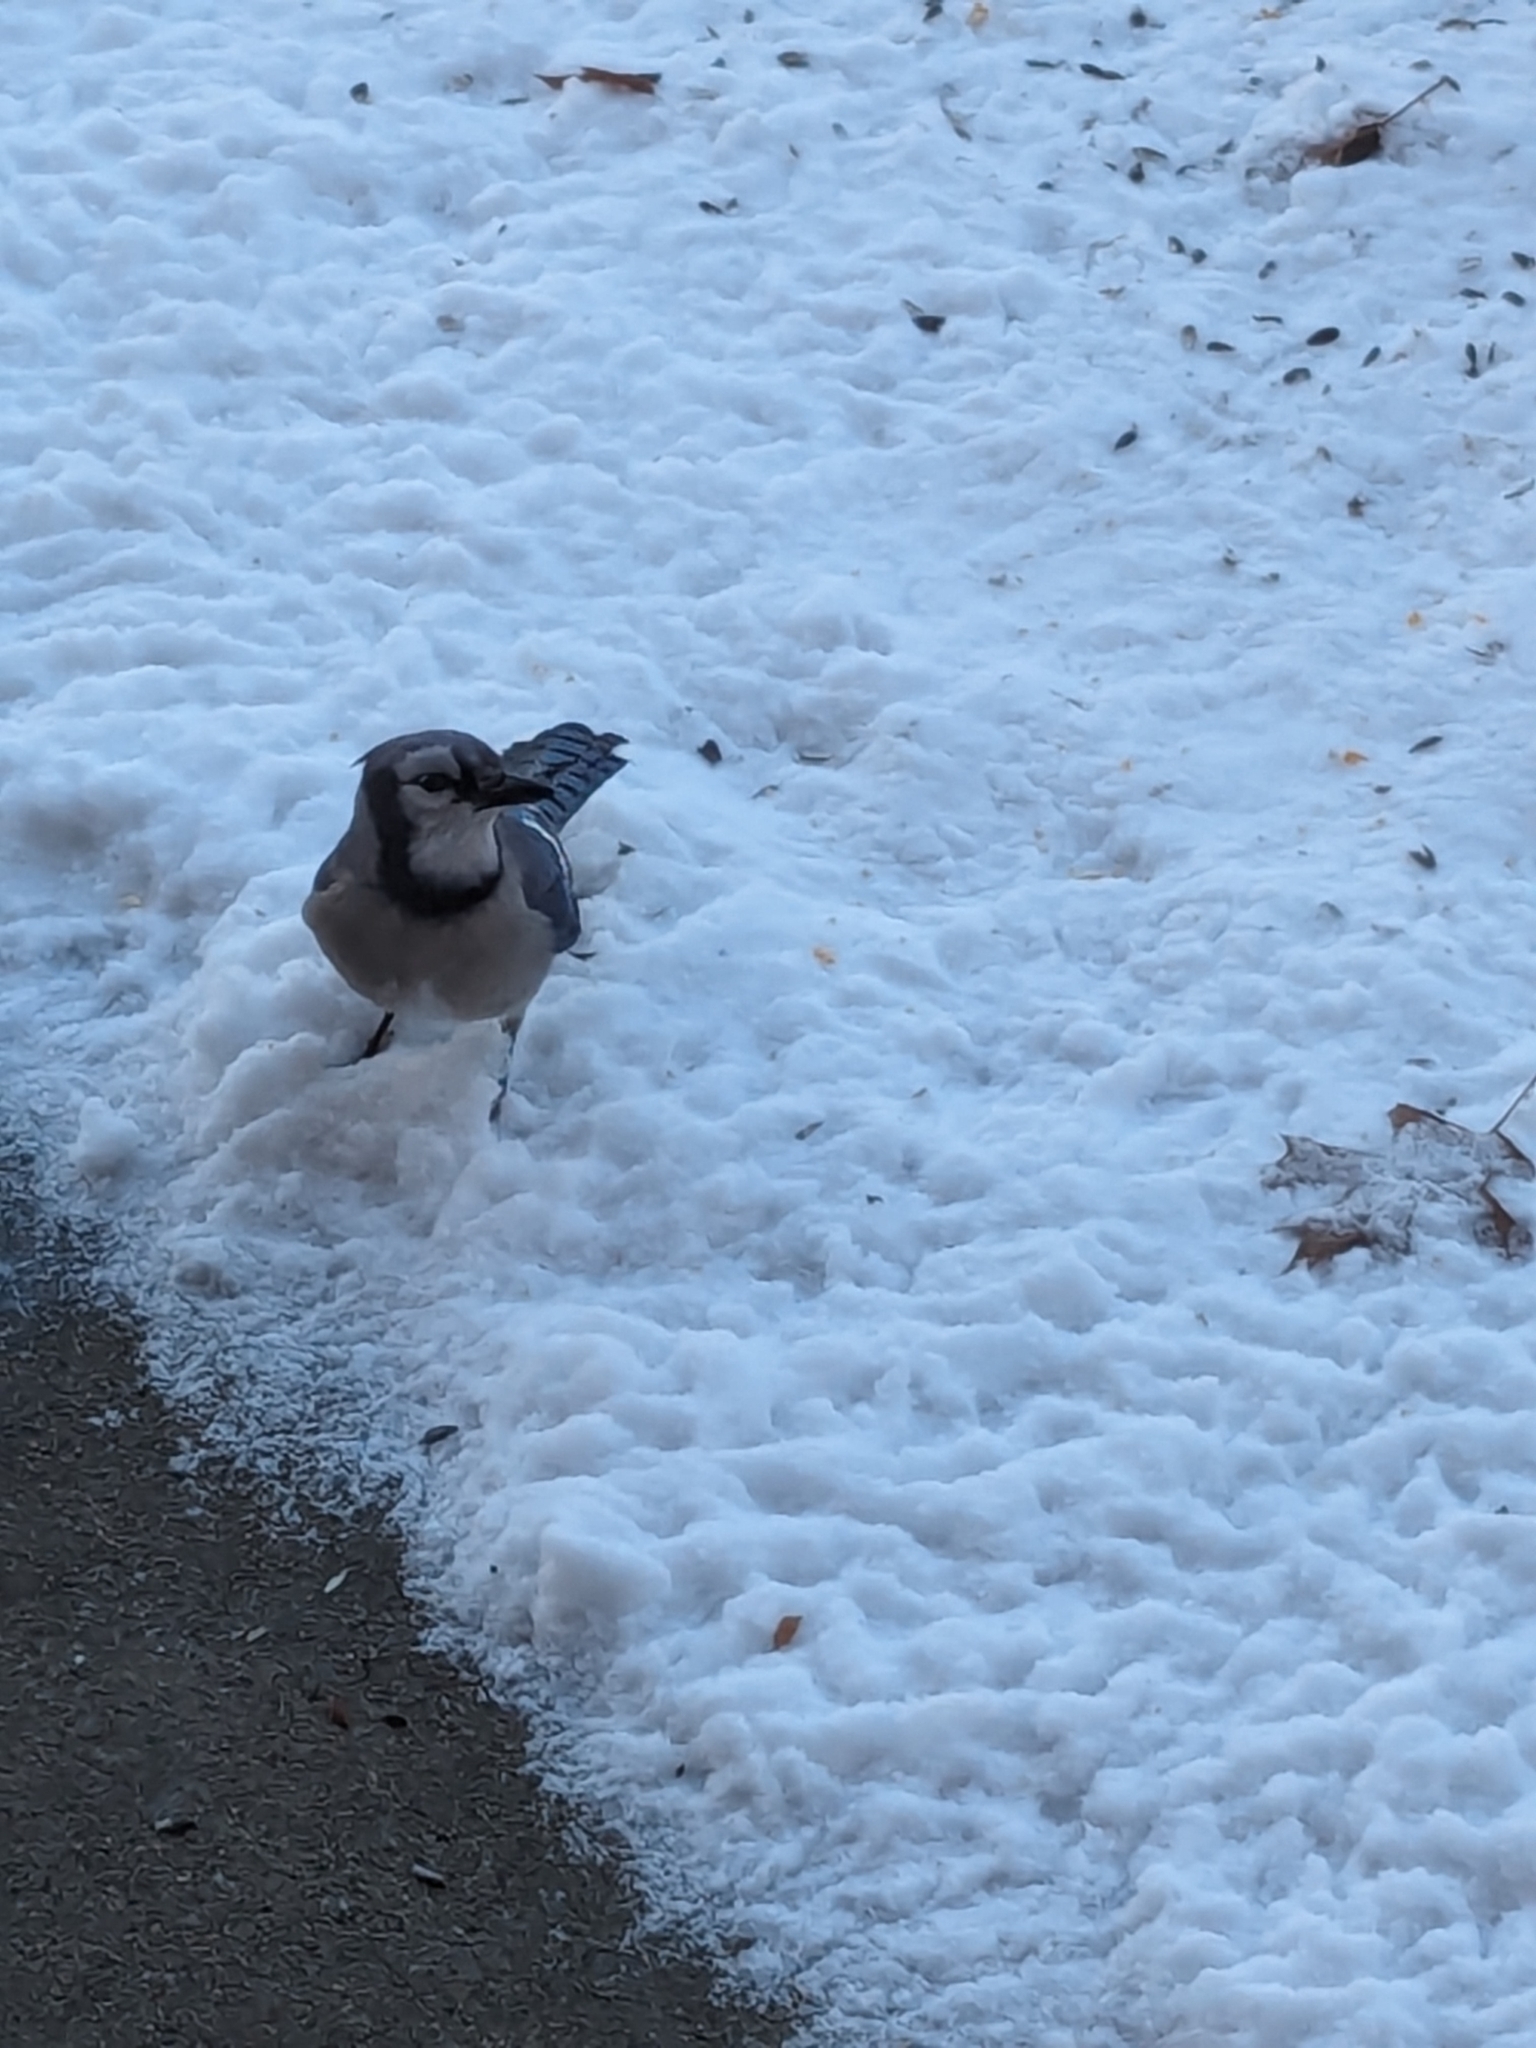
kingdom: Animalia
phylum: Chordata
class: Aves
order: Passeriformes
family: Corvidae
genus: Cyanocitta
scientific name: Cyanocitta cristata
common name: Blue jay
